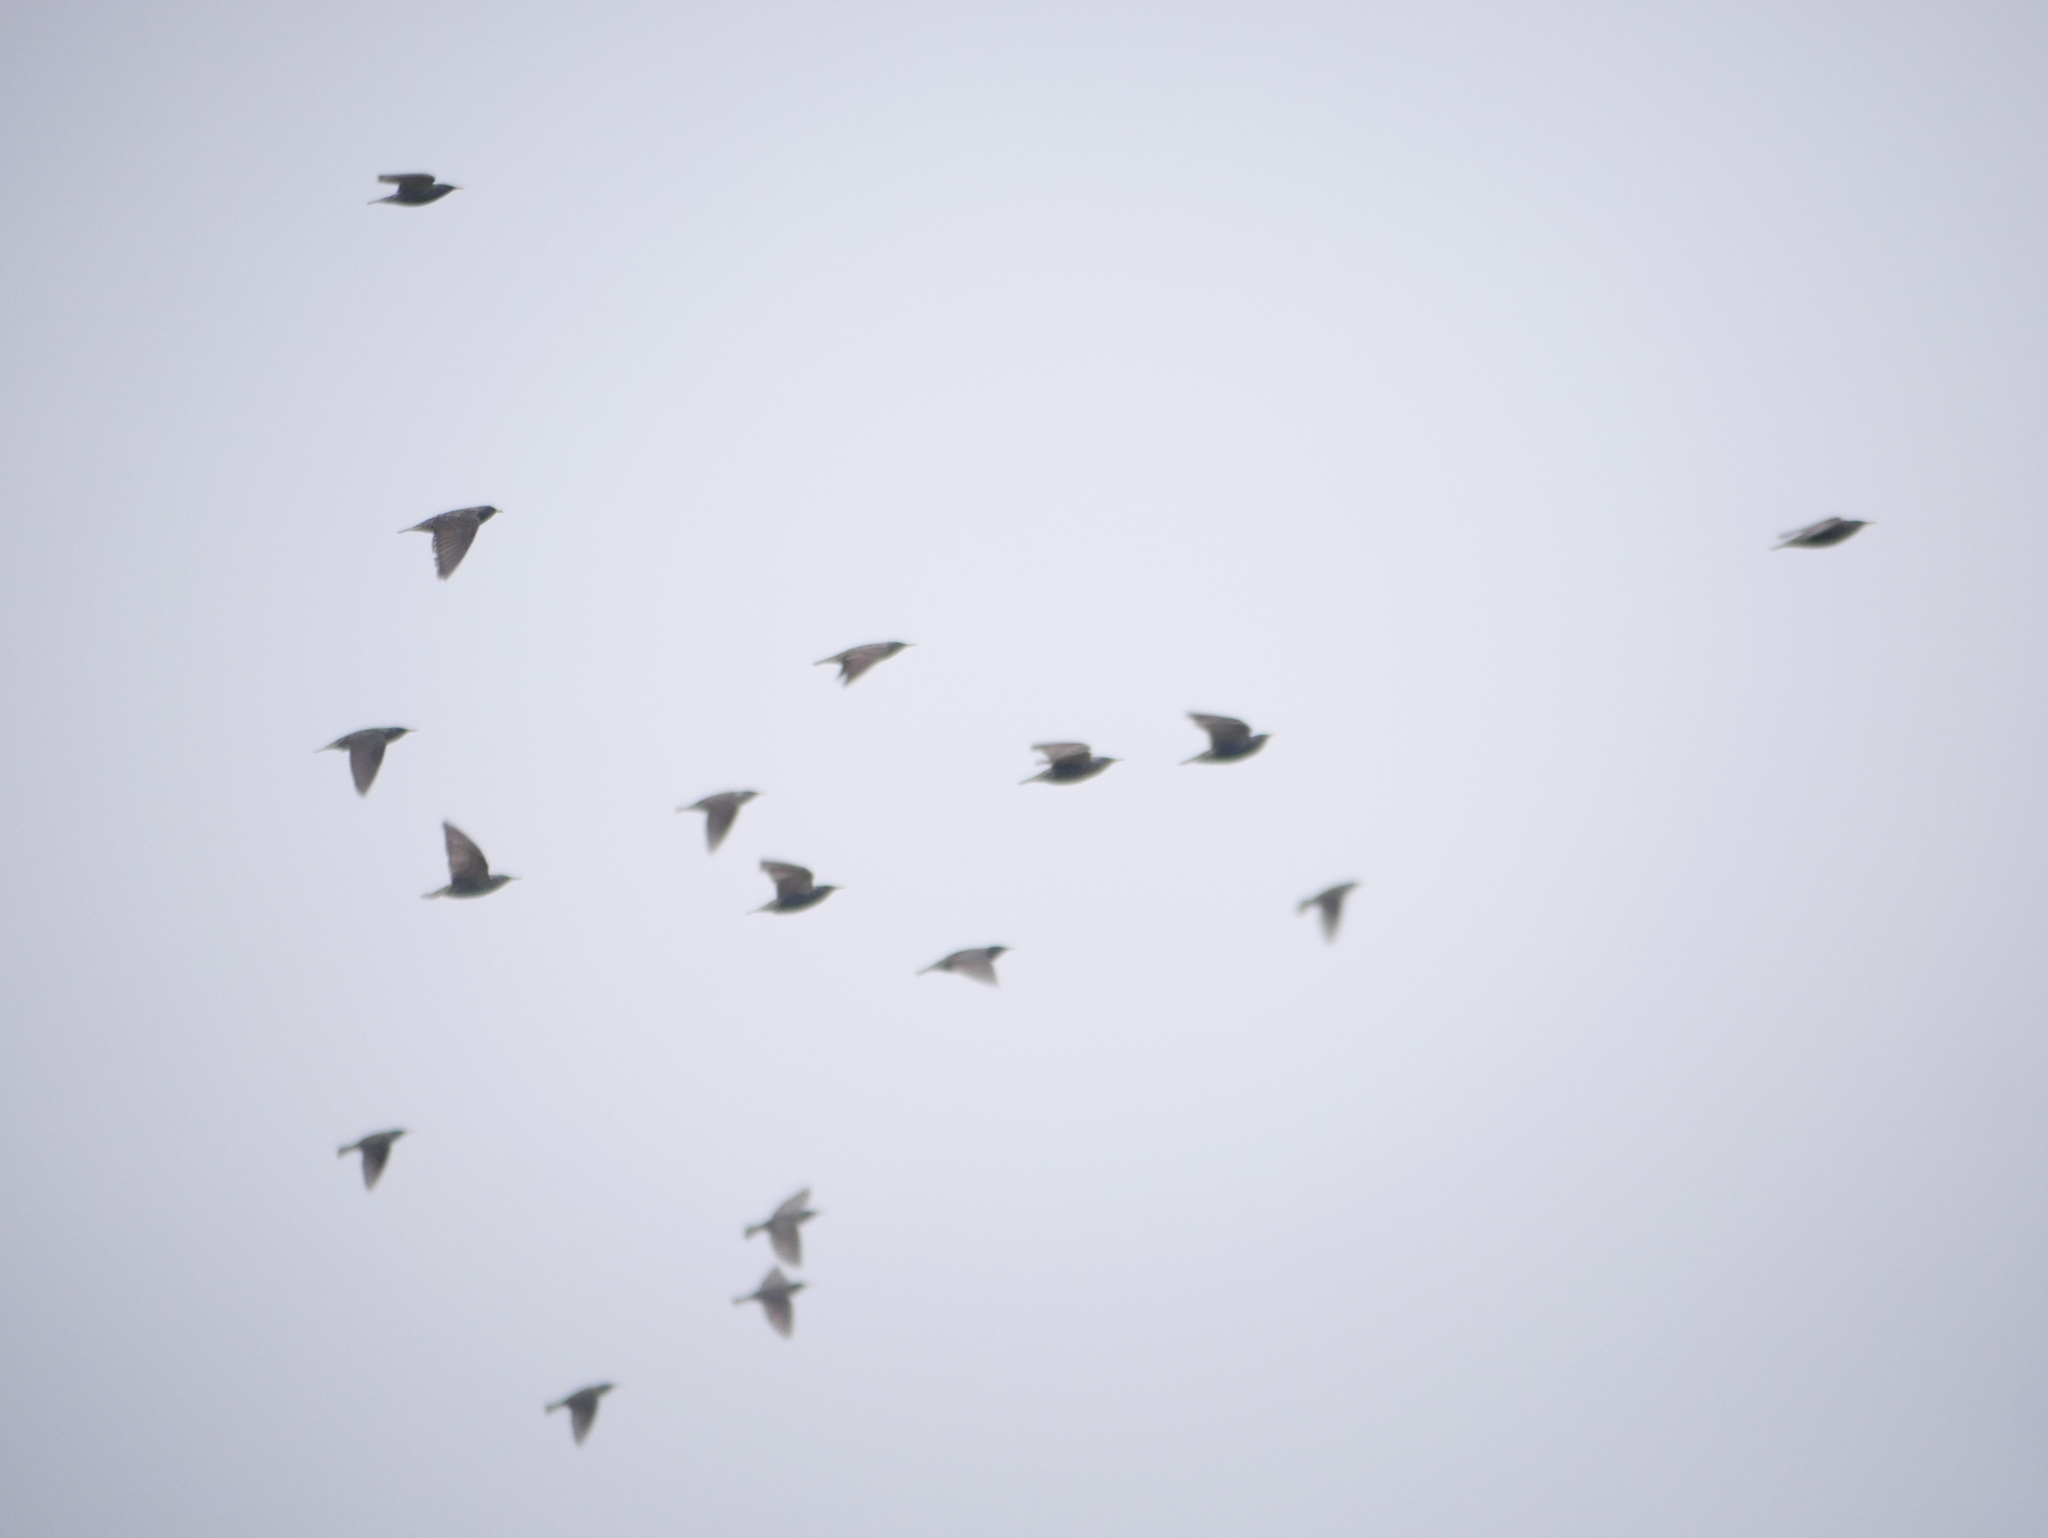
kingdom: Animalia
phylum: Chordata
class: Aves
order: Passeriformes
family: Sturnidae
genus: Sturnus
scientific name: Sturnus vulgaris
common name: Common starling
